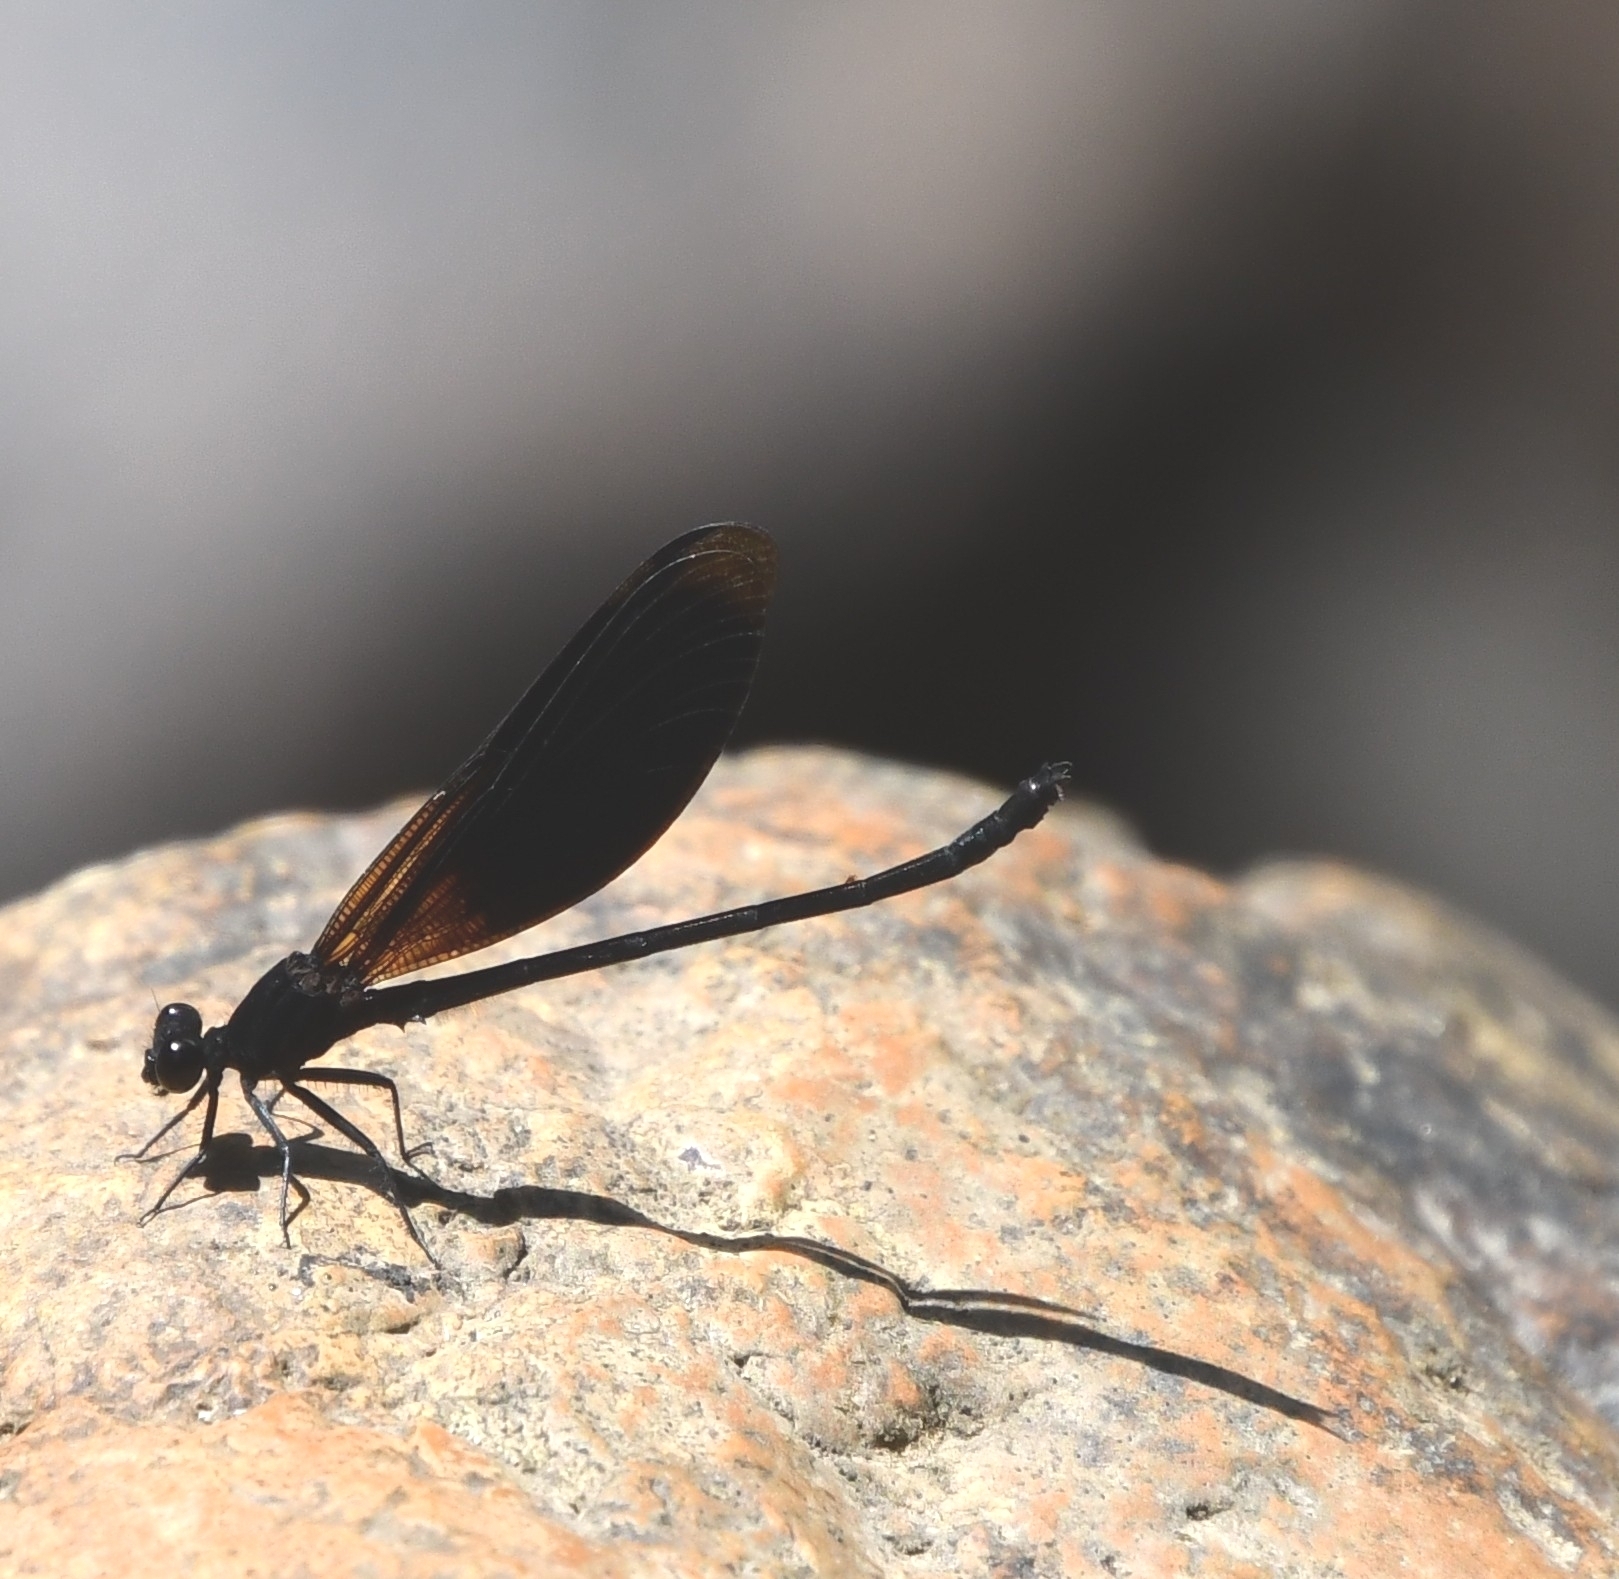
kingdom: Animalia
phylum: Arthropoda
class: Insecta
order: Odonata
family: Euphaeidae
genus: Euphaea
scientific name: Euphaea masoni
